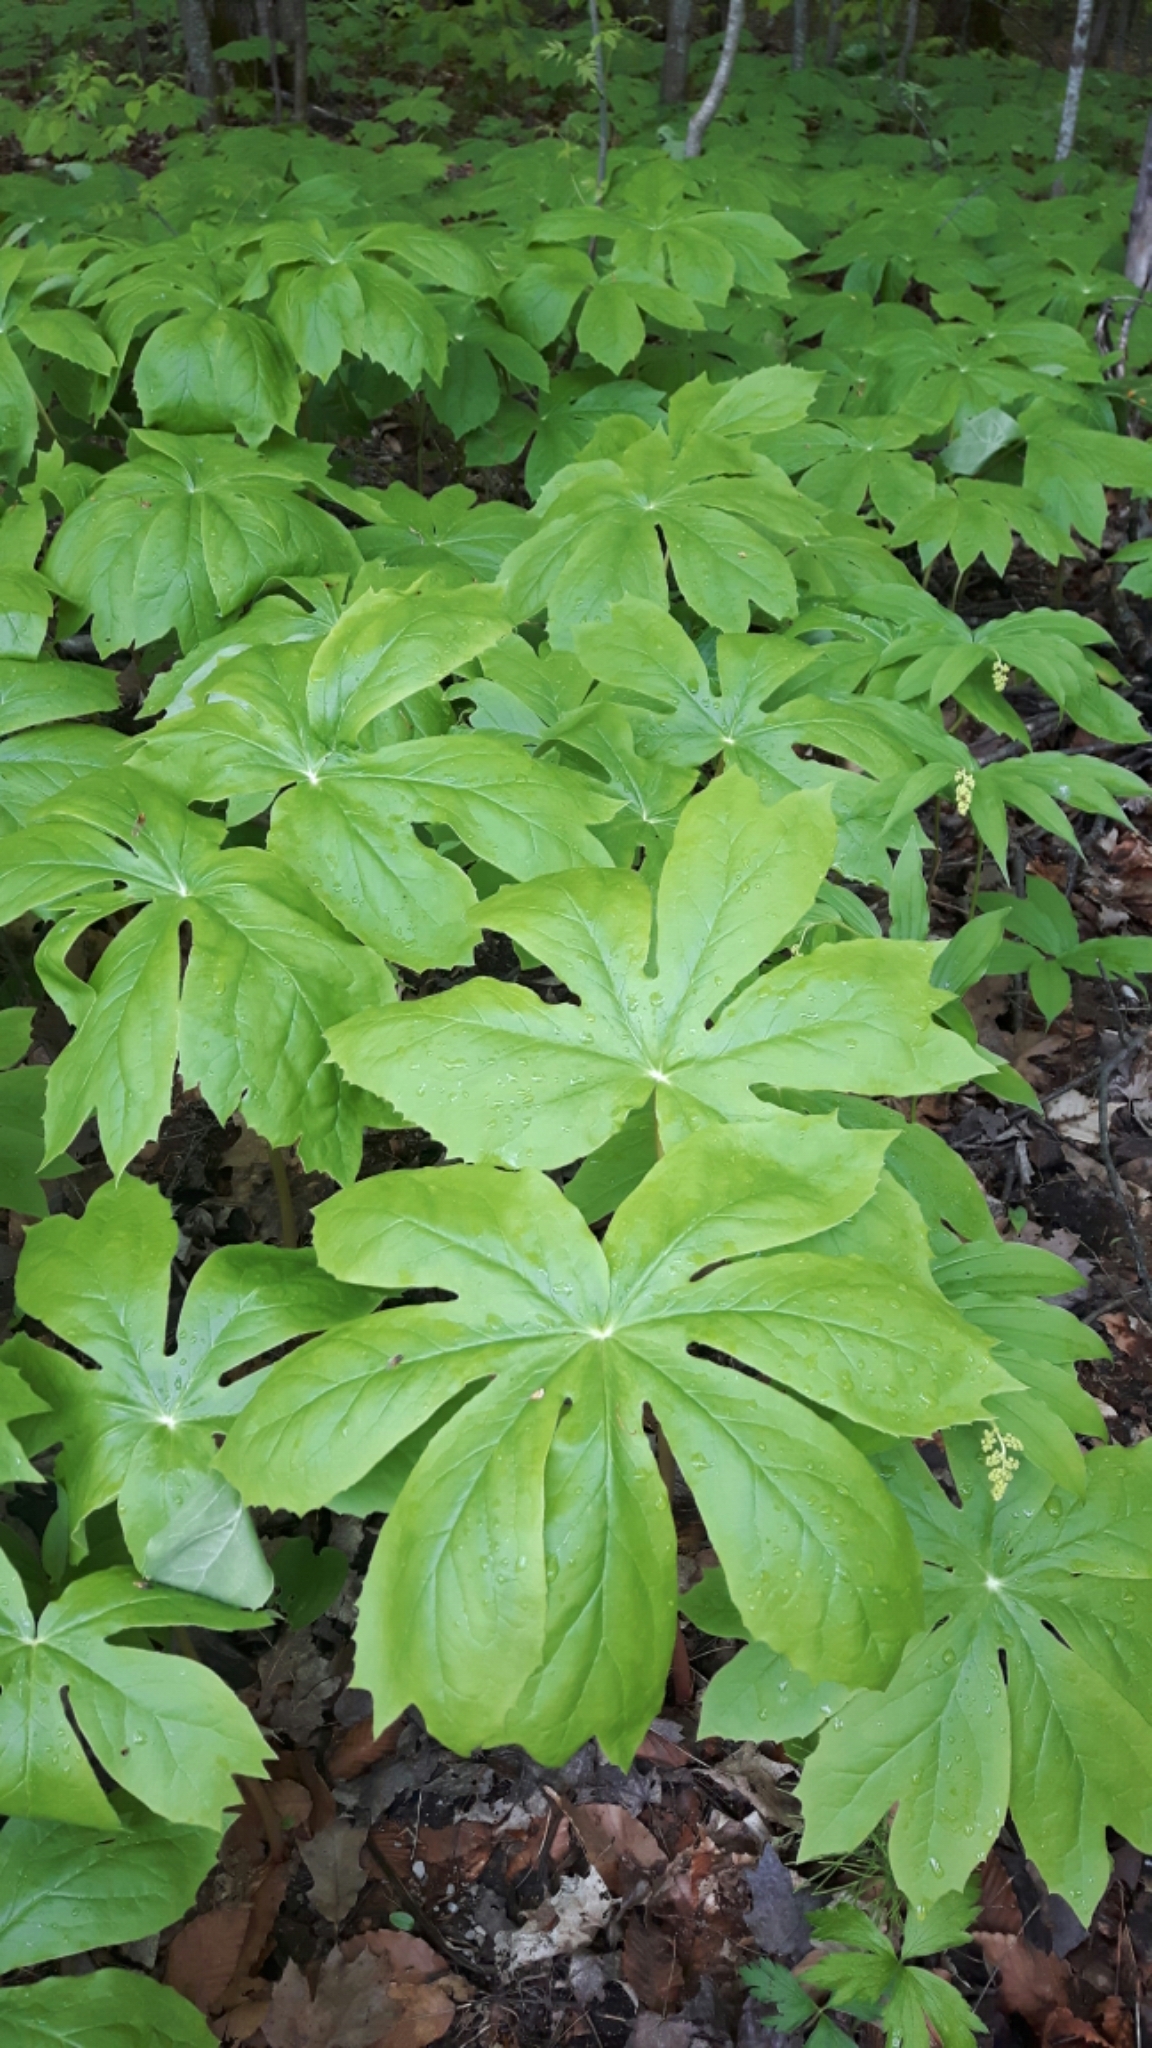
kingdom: Plantae
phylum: Tracheophyta
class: Magnoliopsida
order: Ranunculales
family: Berberidaceae
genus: Podophyllum
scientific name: Podophyllum peltatum
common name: Wild mandrake
